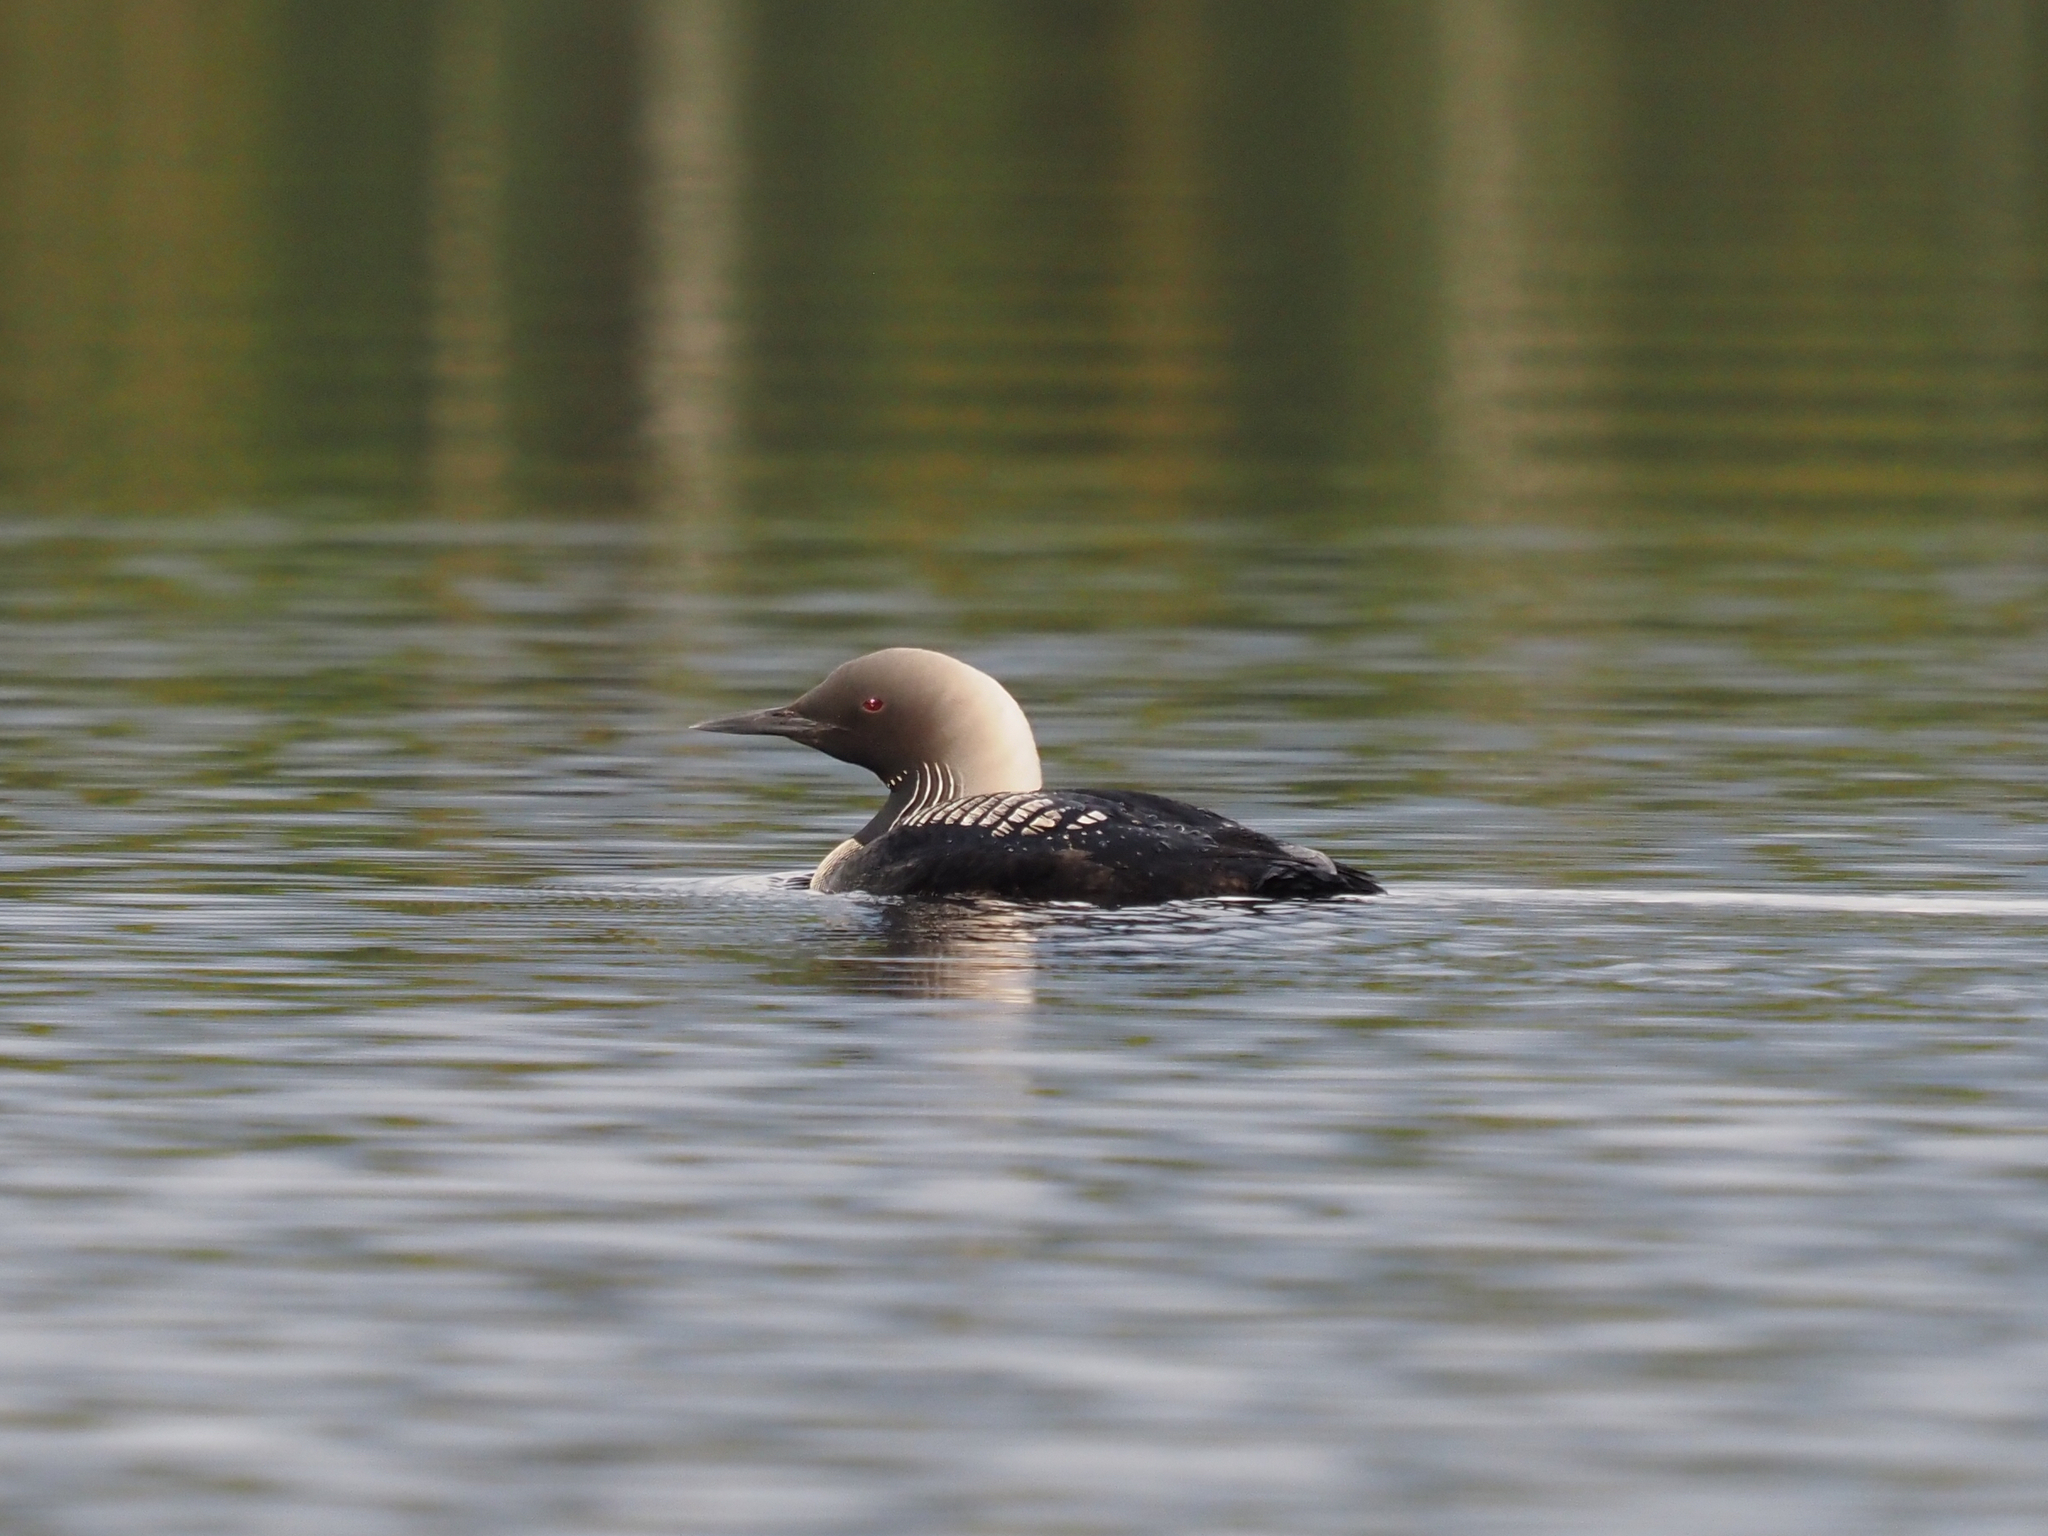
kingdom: Animalia
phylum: Chordata
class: Aves
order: Gaviiformes
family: Gaviidae
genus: Gavia
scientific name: Gavia pacifica
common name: Pacific loon
